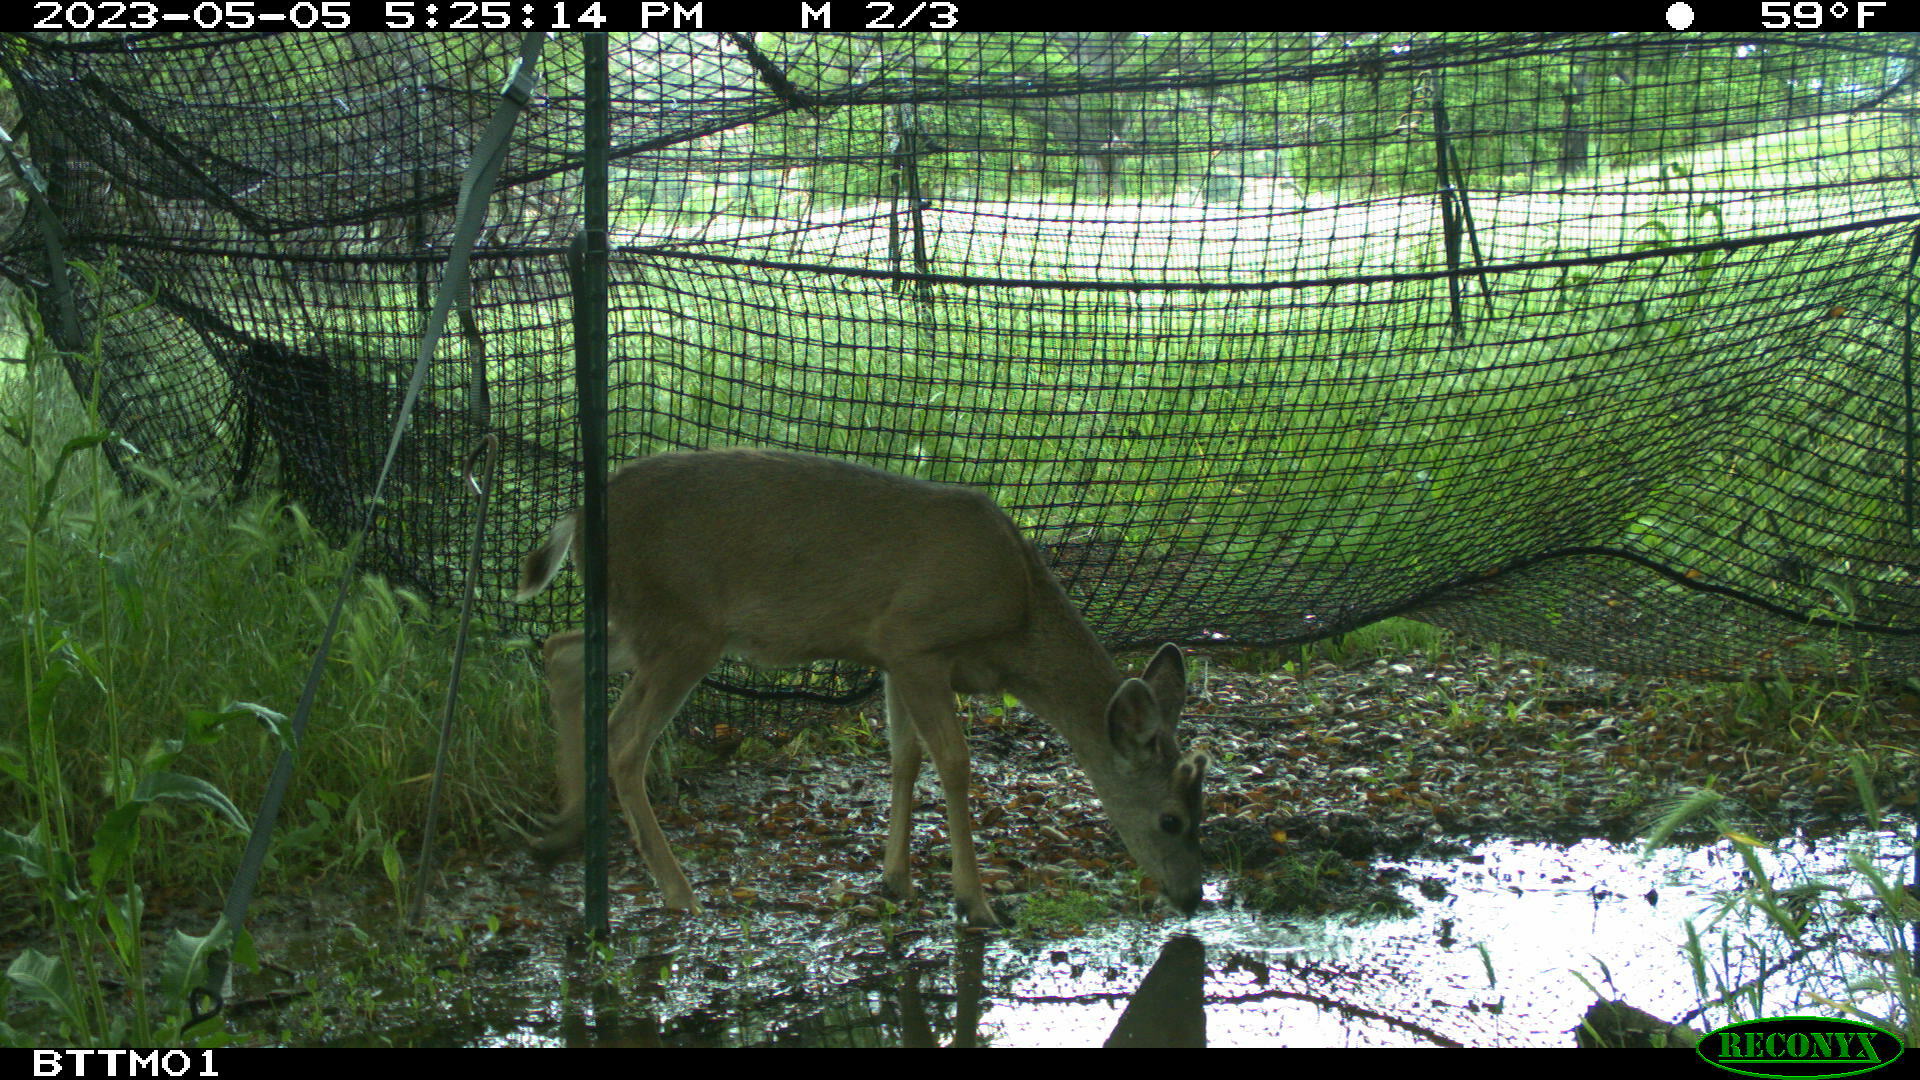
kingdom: Animalia
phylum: Chordata
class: Mammalia
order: Artiodactyla
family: Cervidae
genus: Odocoileus
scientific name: Odocoileus hemionus
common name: Mule deer
